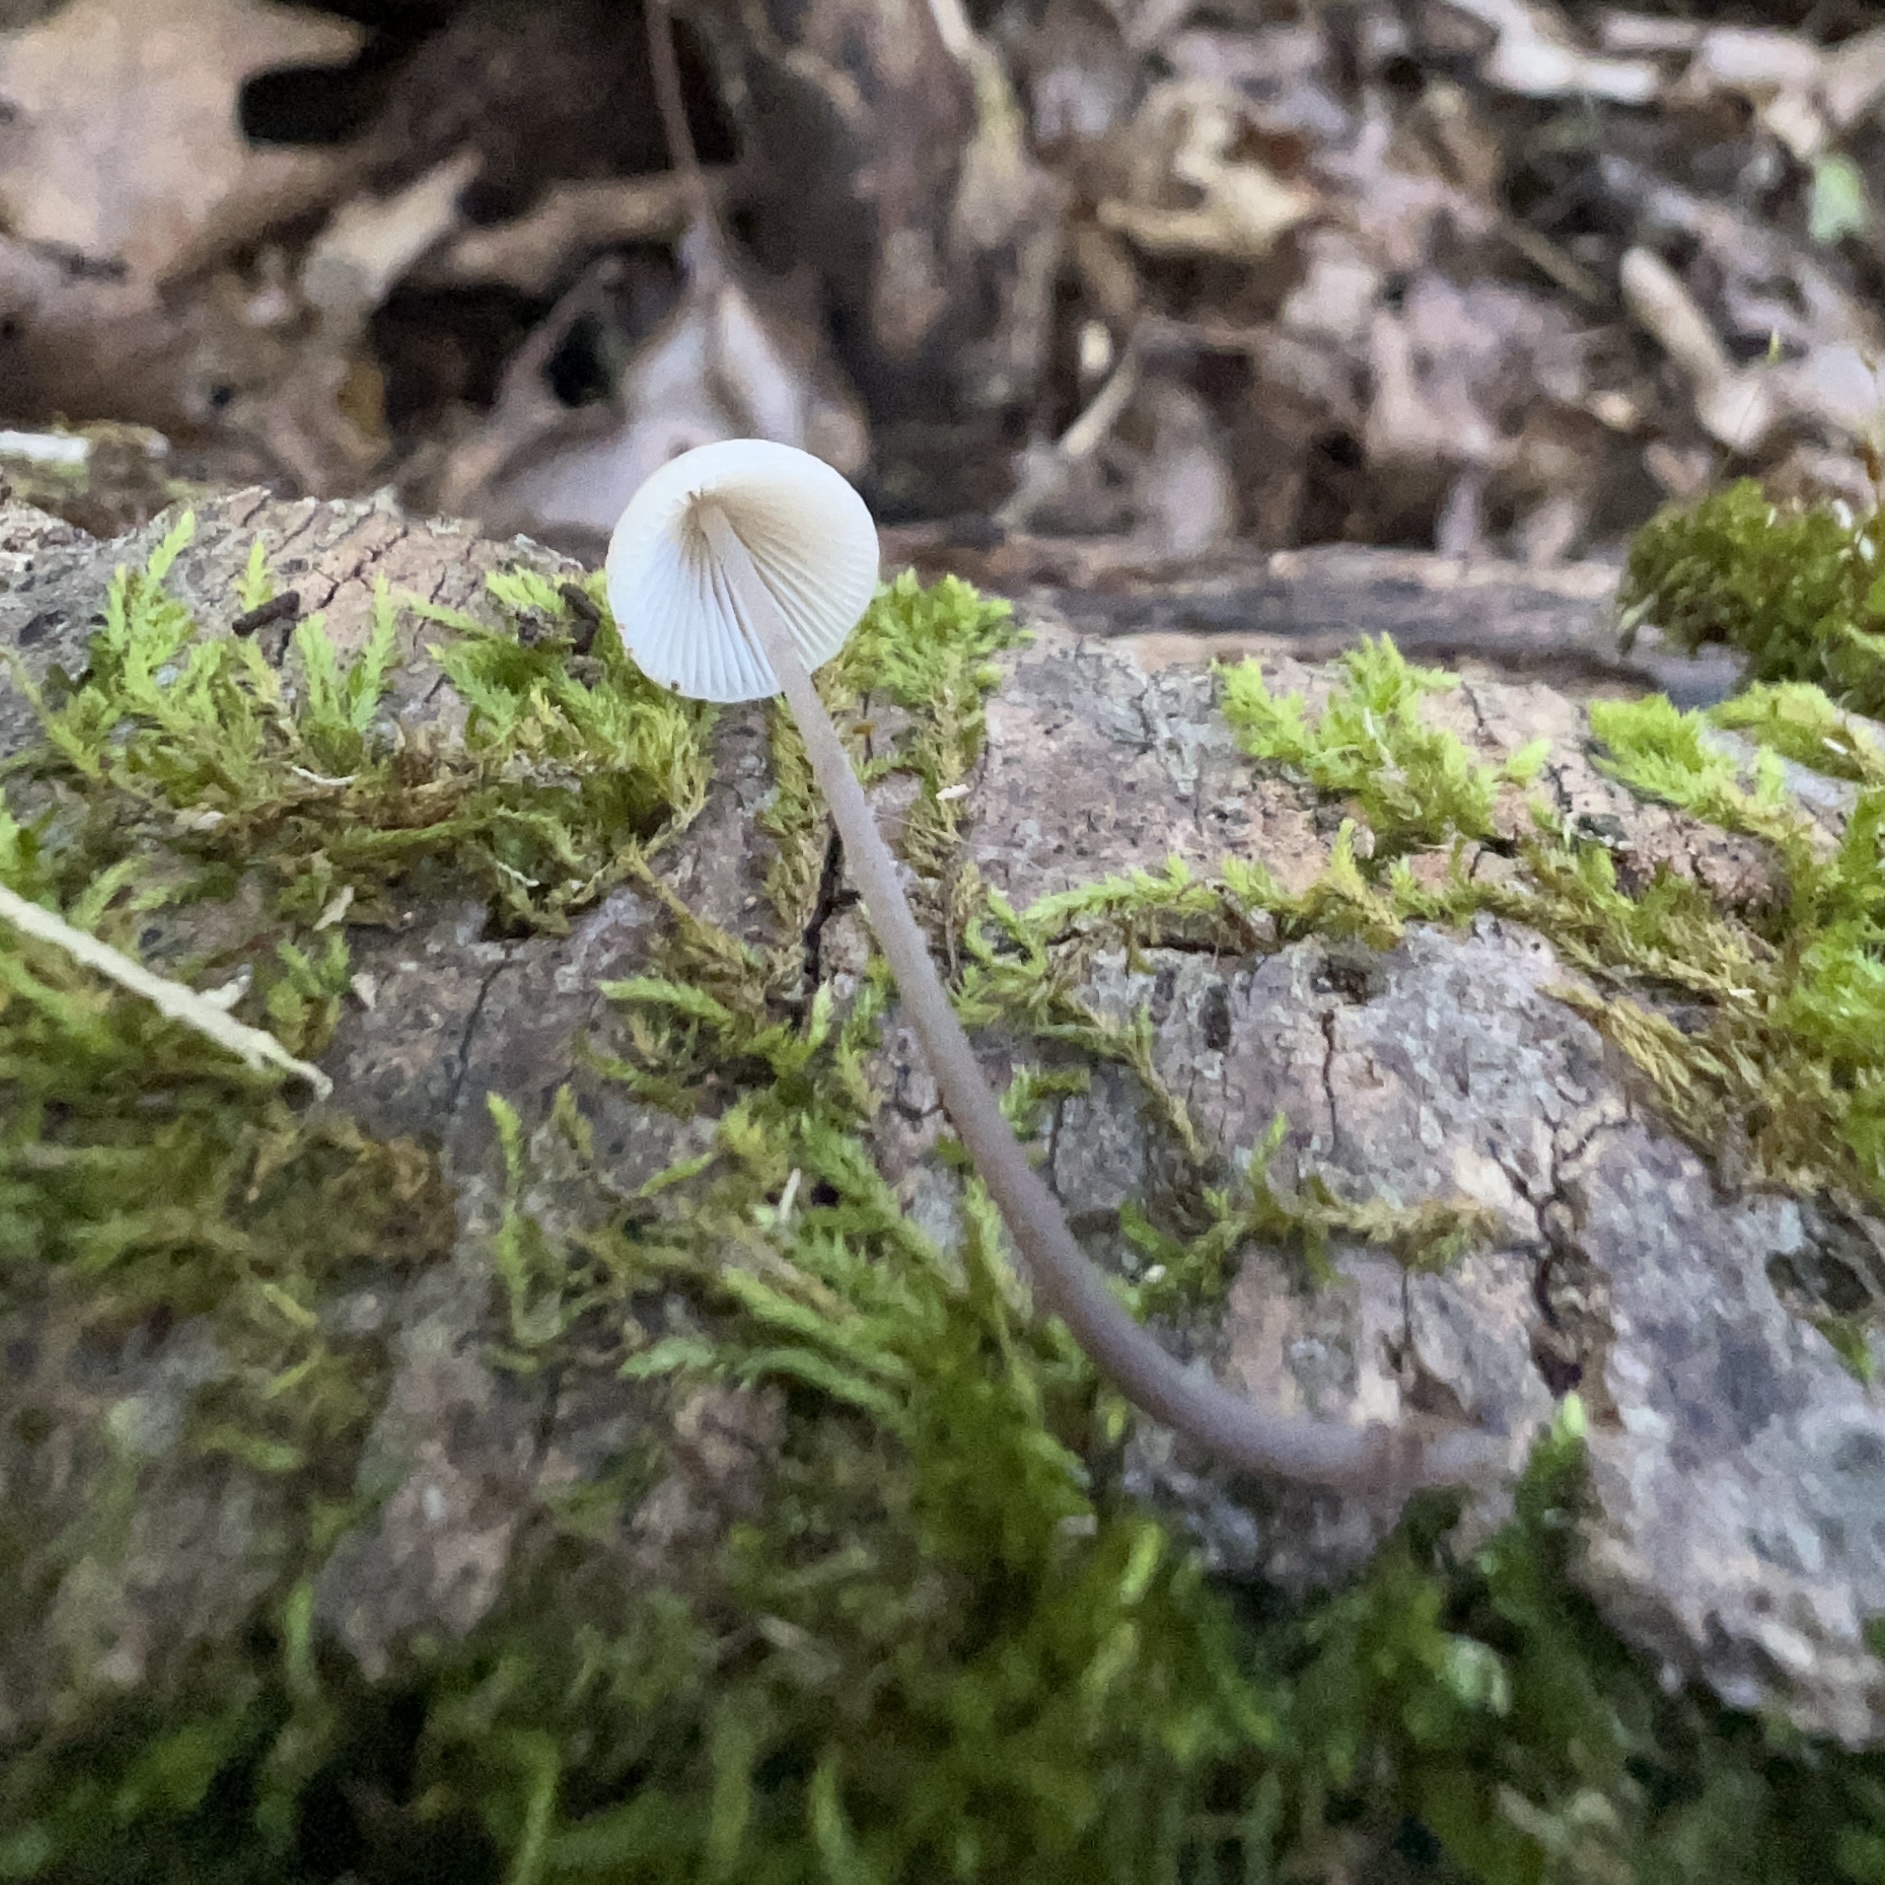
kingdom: Fungi
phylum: Basidiomycota
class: Agaricomycetes
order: Agaricales
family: Mycenaceae
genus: Mycena
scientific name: Mycena filopes
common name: Iodine bonnet
